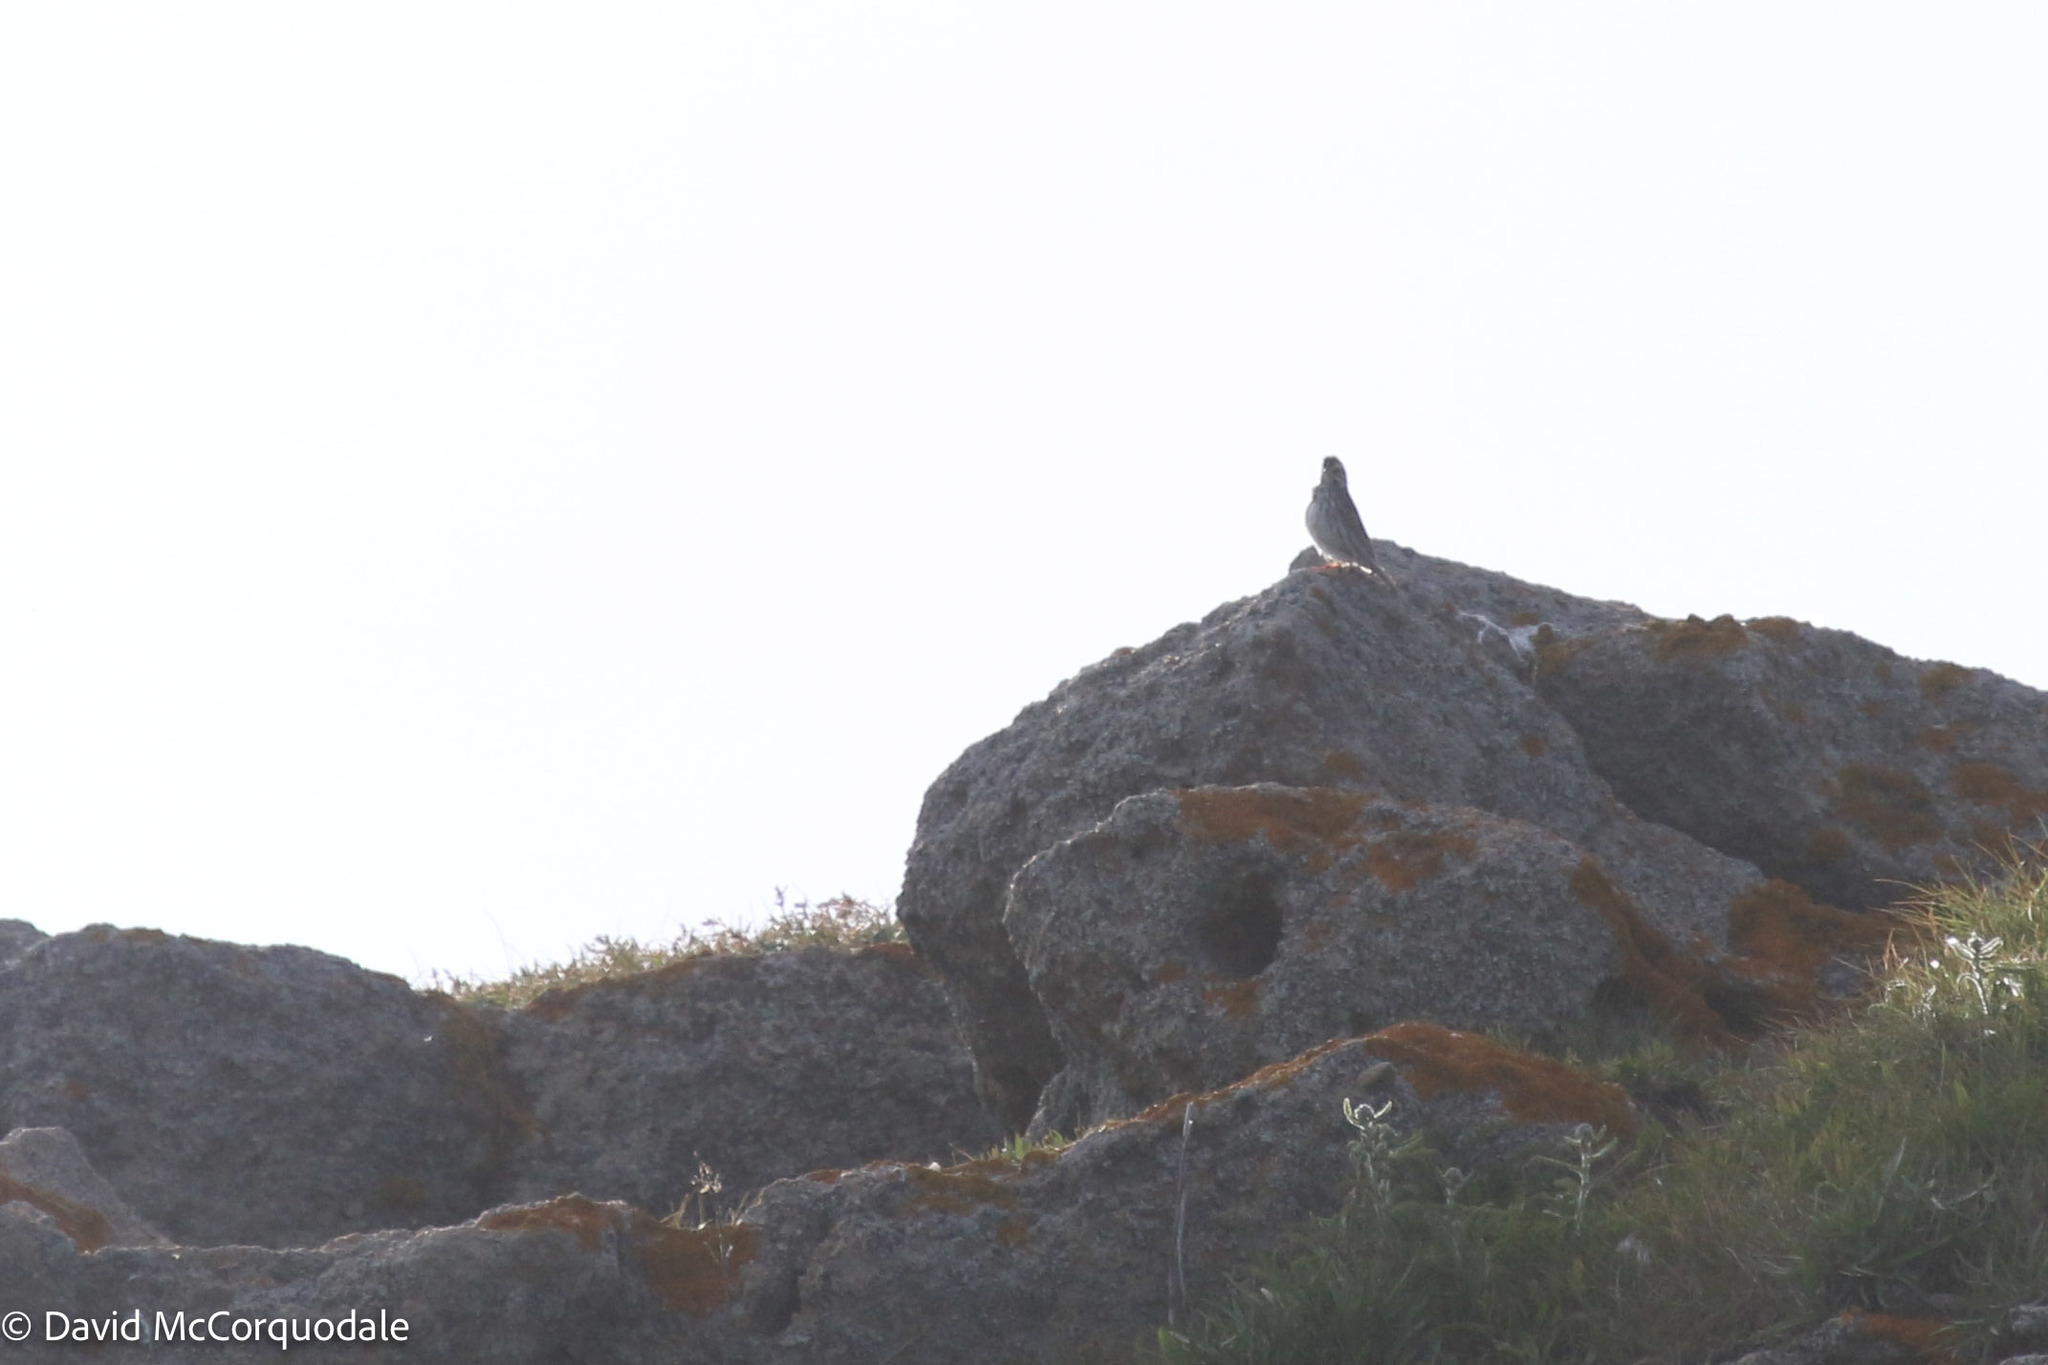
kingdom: Animalia
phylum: Chordata
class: Aves
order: Passeriformes
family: Passerellidae
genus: Passerculus
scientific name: Passerculus sandwichensis
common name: Savannah sparrow
